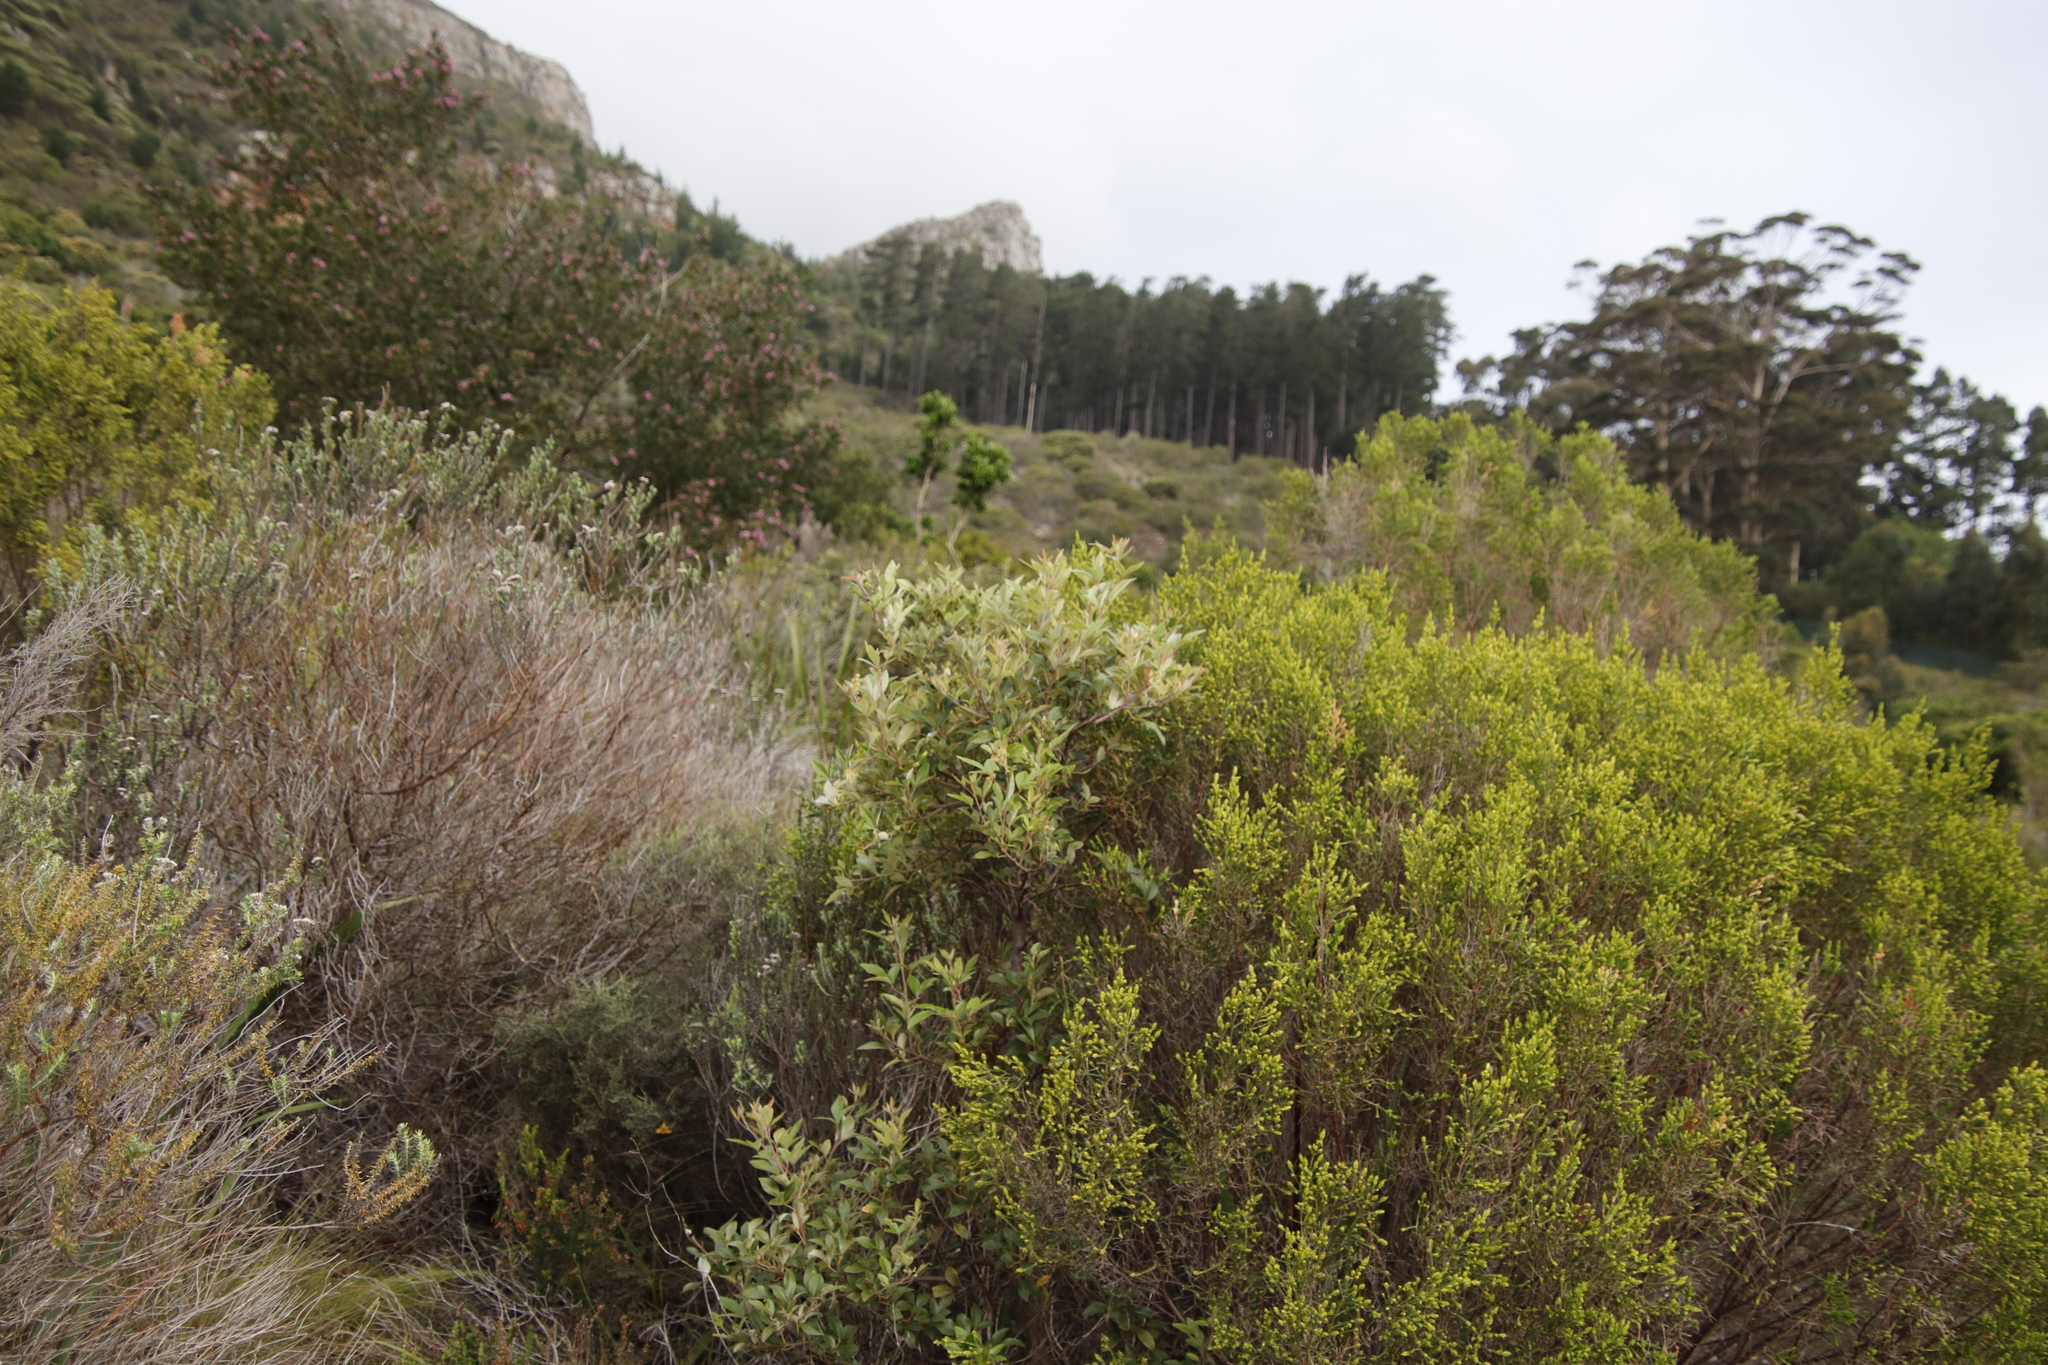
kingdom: Plantae
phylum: Tracheophyta
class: Magnoliopsida
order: Sapindales
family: Anacardiaceae
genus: Searsia
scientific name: Searsia tomentosa
